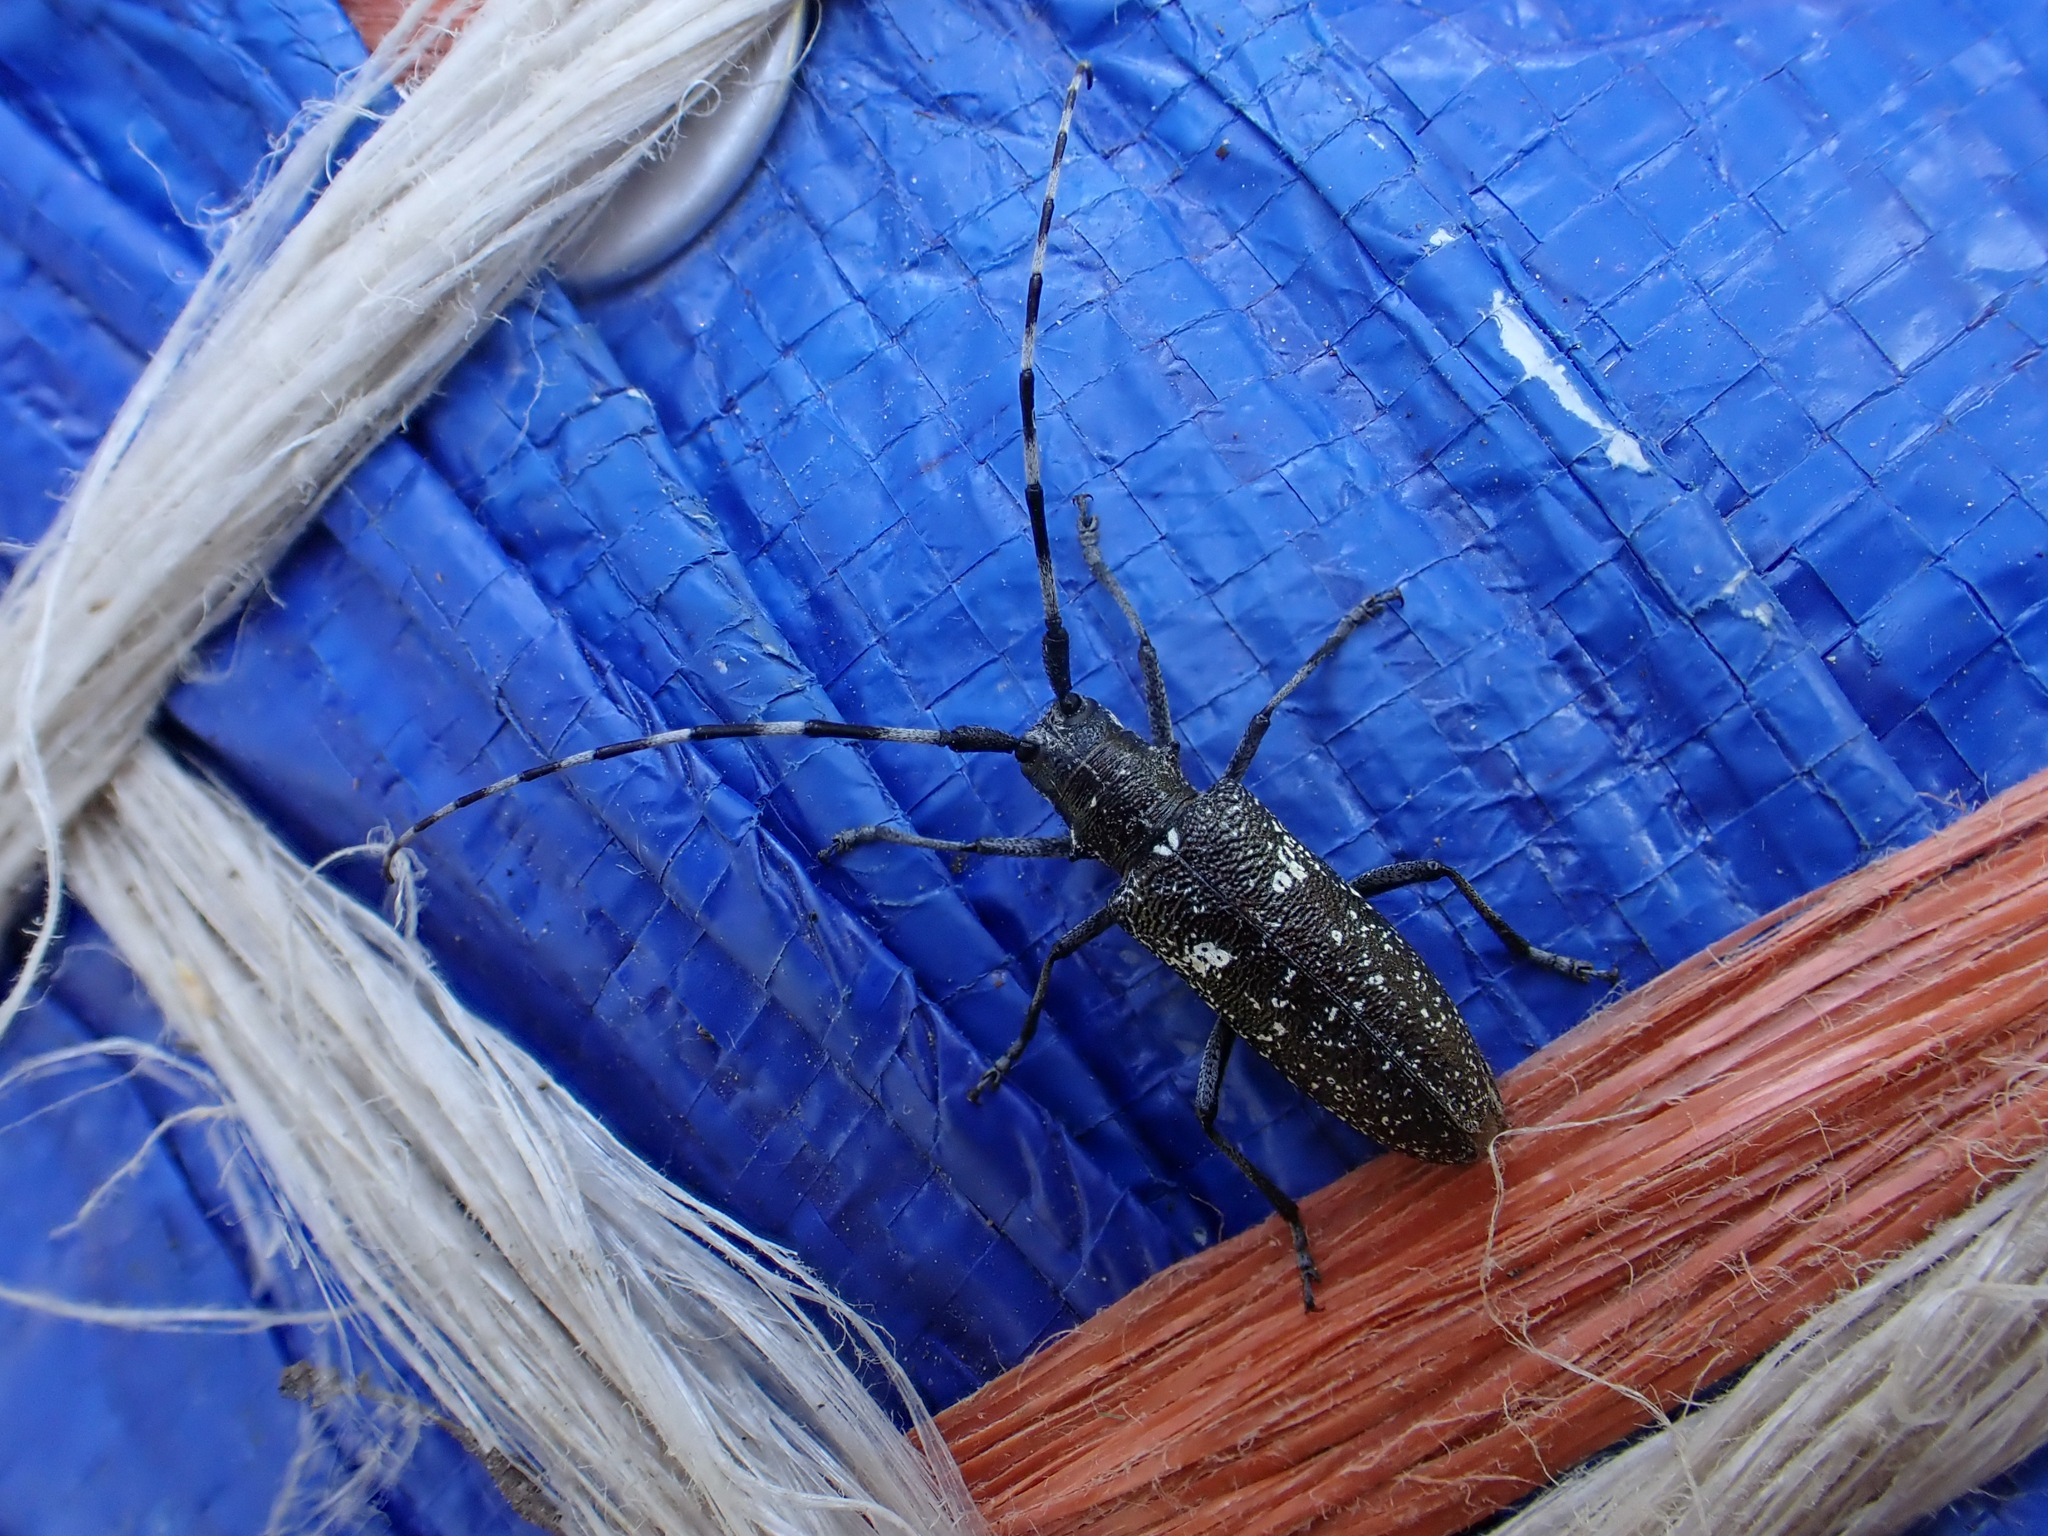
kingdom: Animalia
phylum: Arthropoda
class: Insecta
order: Coleoptera
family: Cerambycidae
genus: Monochamus
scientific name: Monochamus scutellatus
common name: White-spotted sawyer beetle
